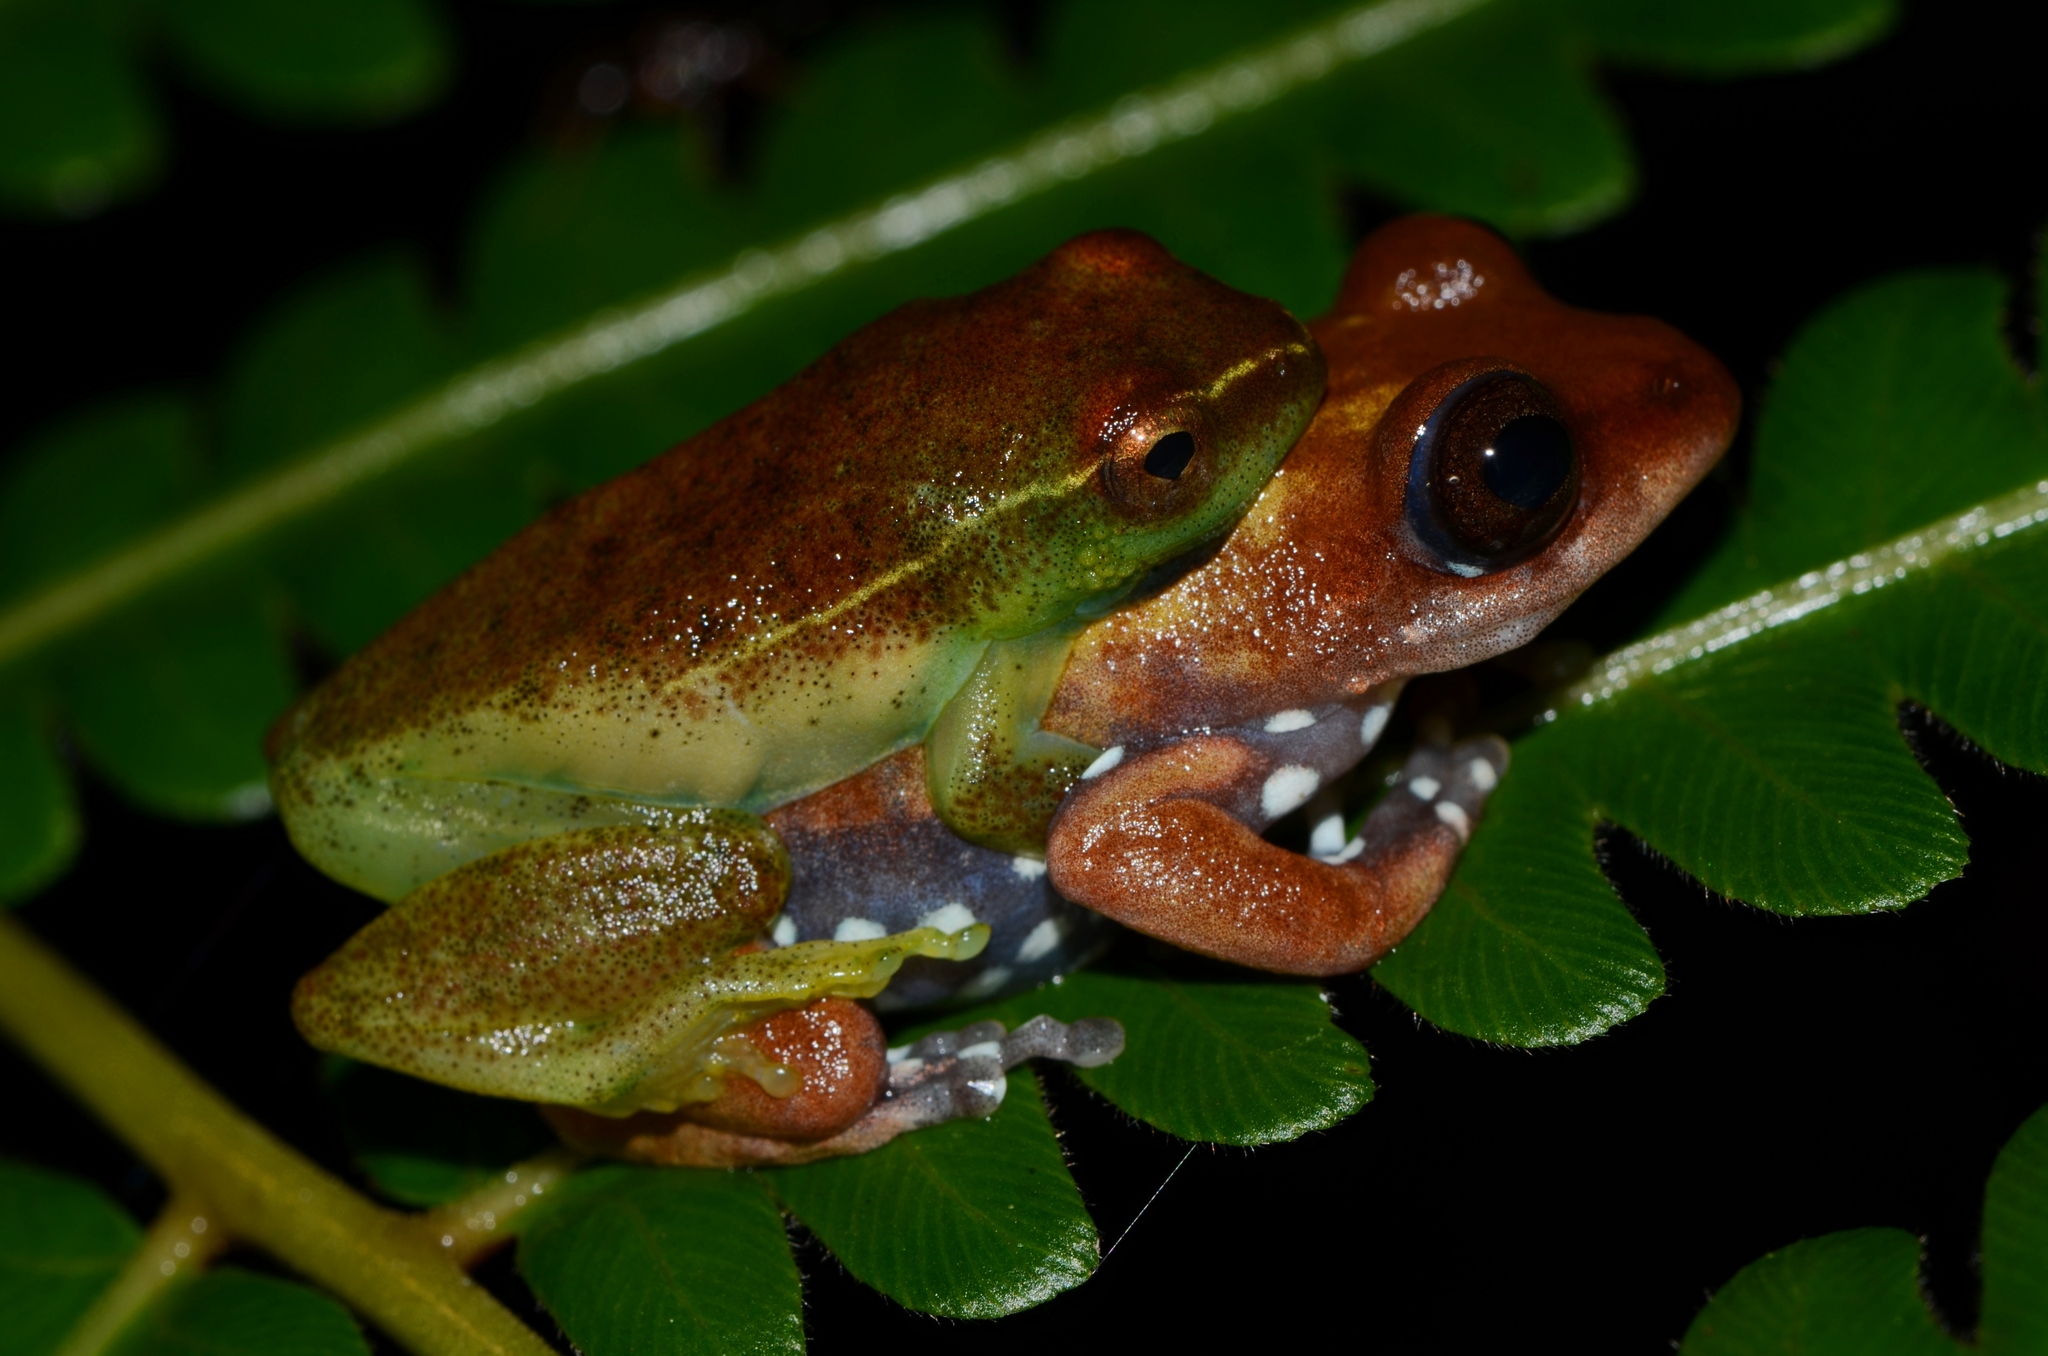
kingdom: Animalia
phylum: Chordata
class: Amphibia
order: Anura
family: Hyperoliidae
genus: Hyperolius
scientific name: Hyperolius pardalis
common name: Leopard reed frog
